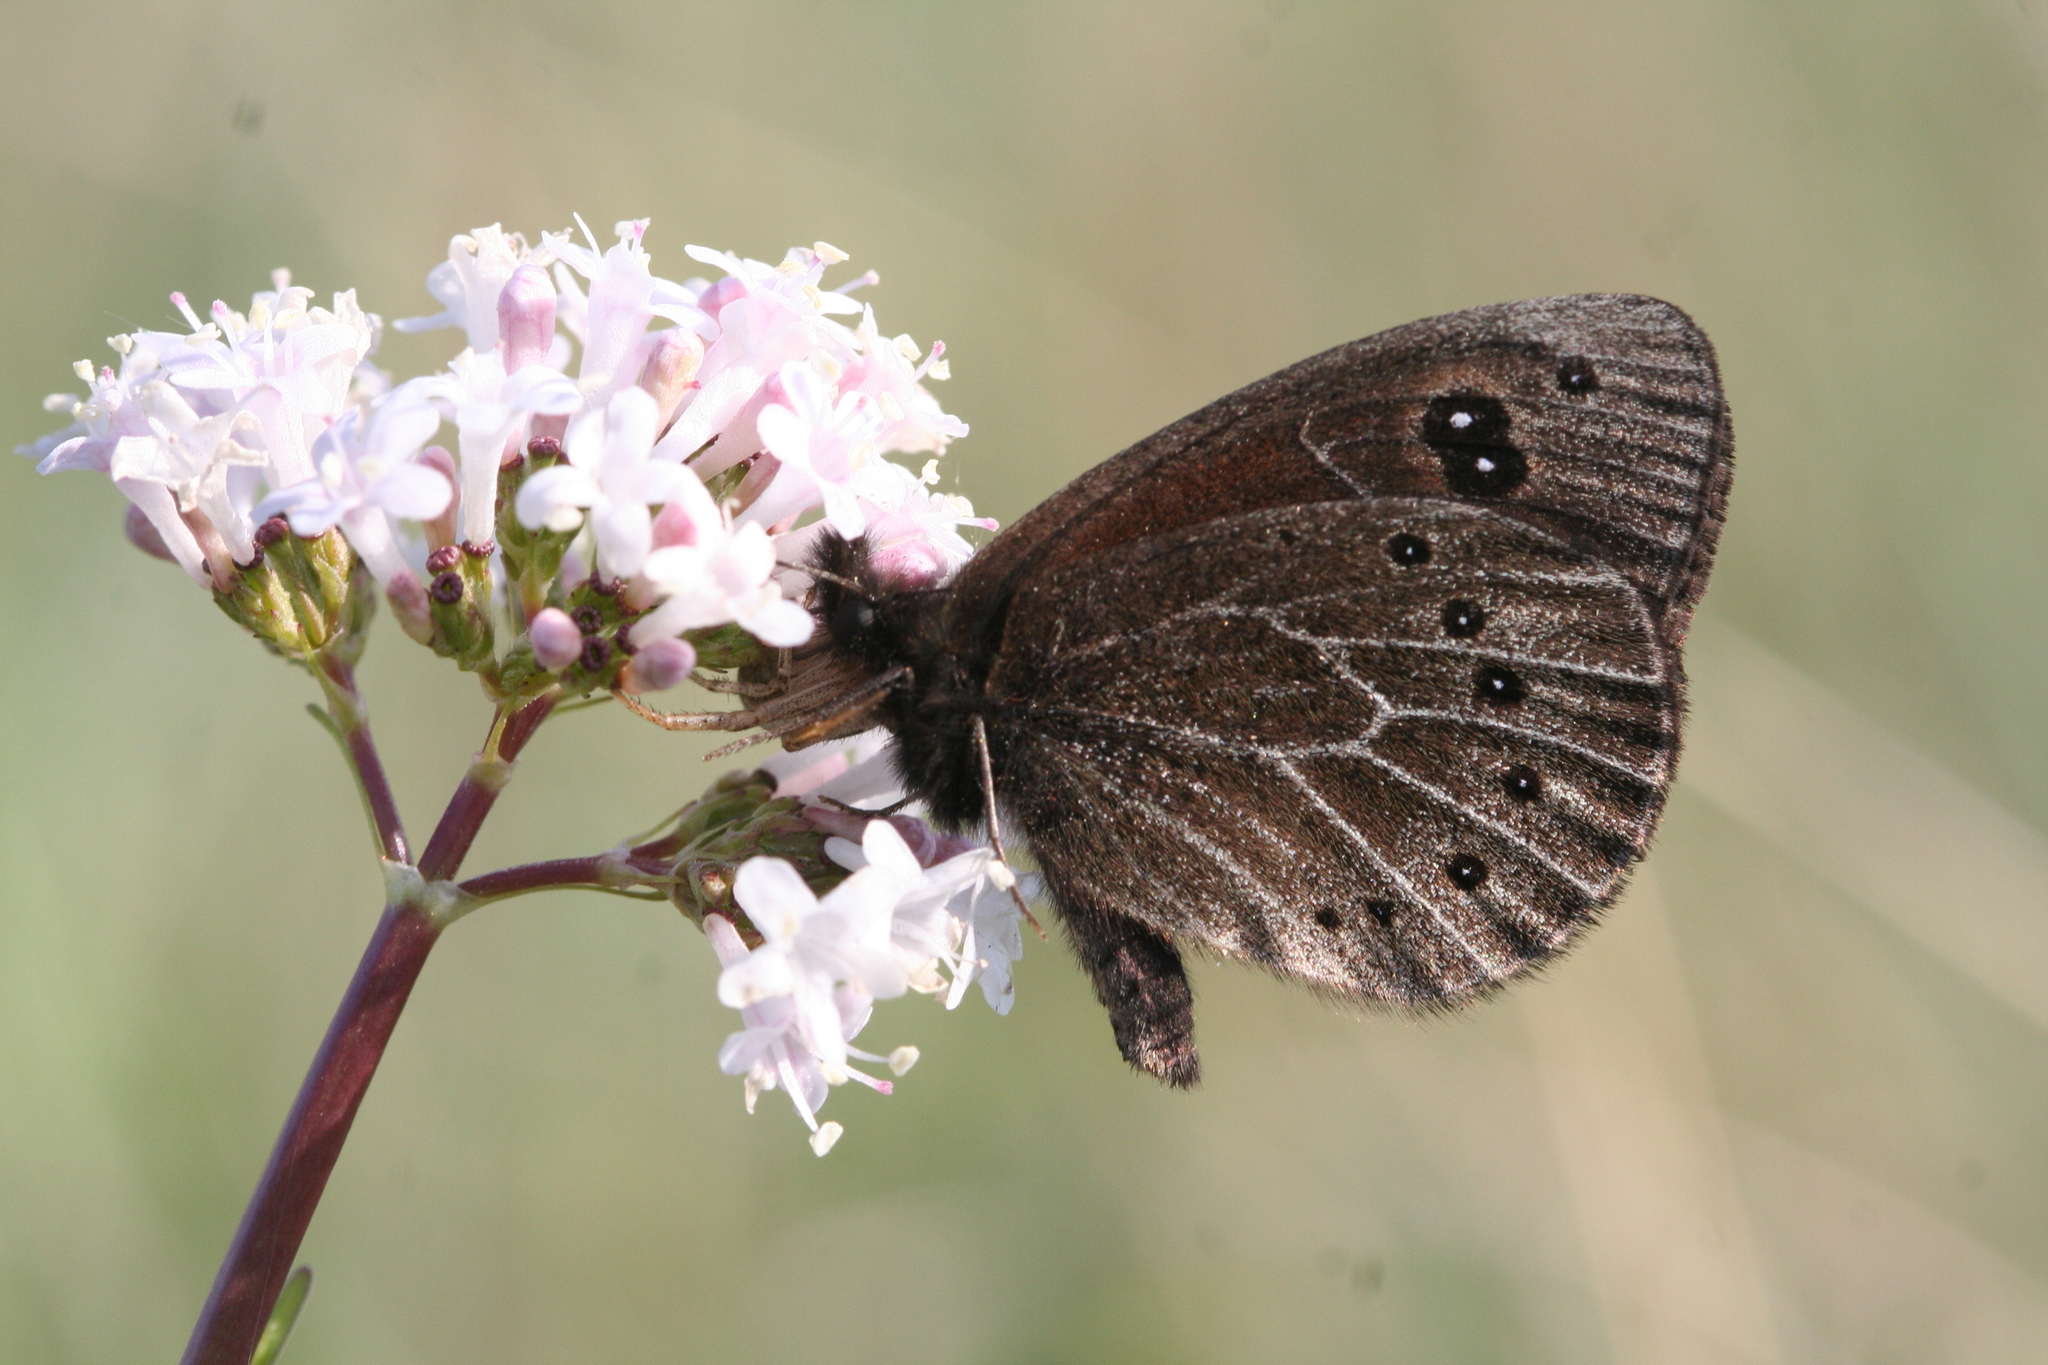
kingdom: Animalia
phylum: Arthropoda
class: Insecta
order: Lepidoptera
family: Nymphalidae
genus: Proterebia
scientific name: Proterebia afra
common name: Dalmatian ringlet
